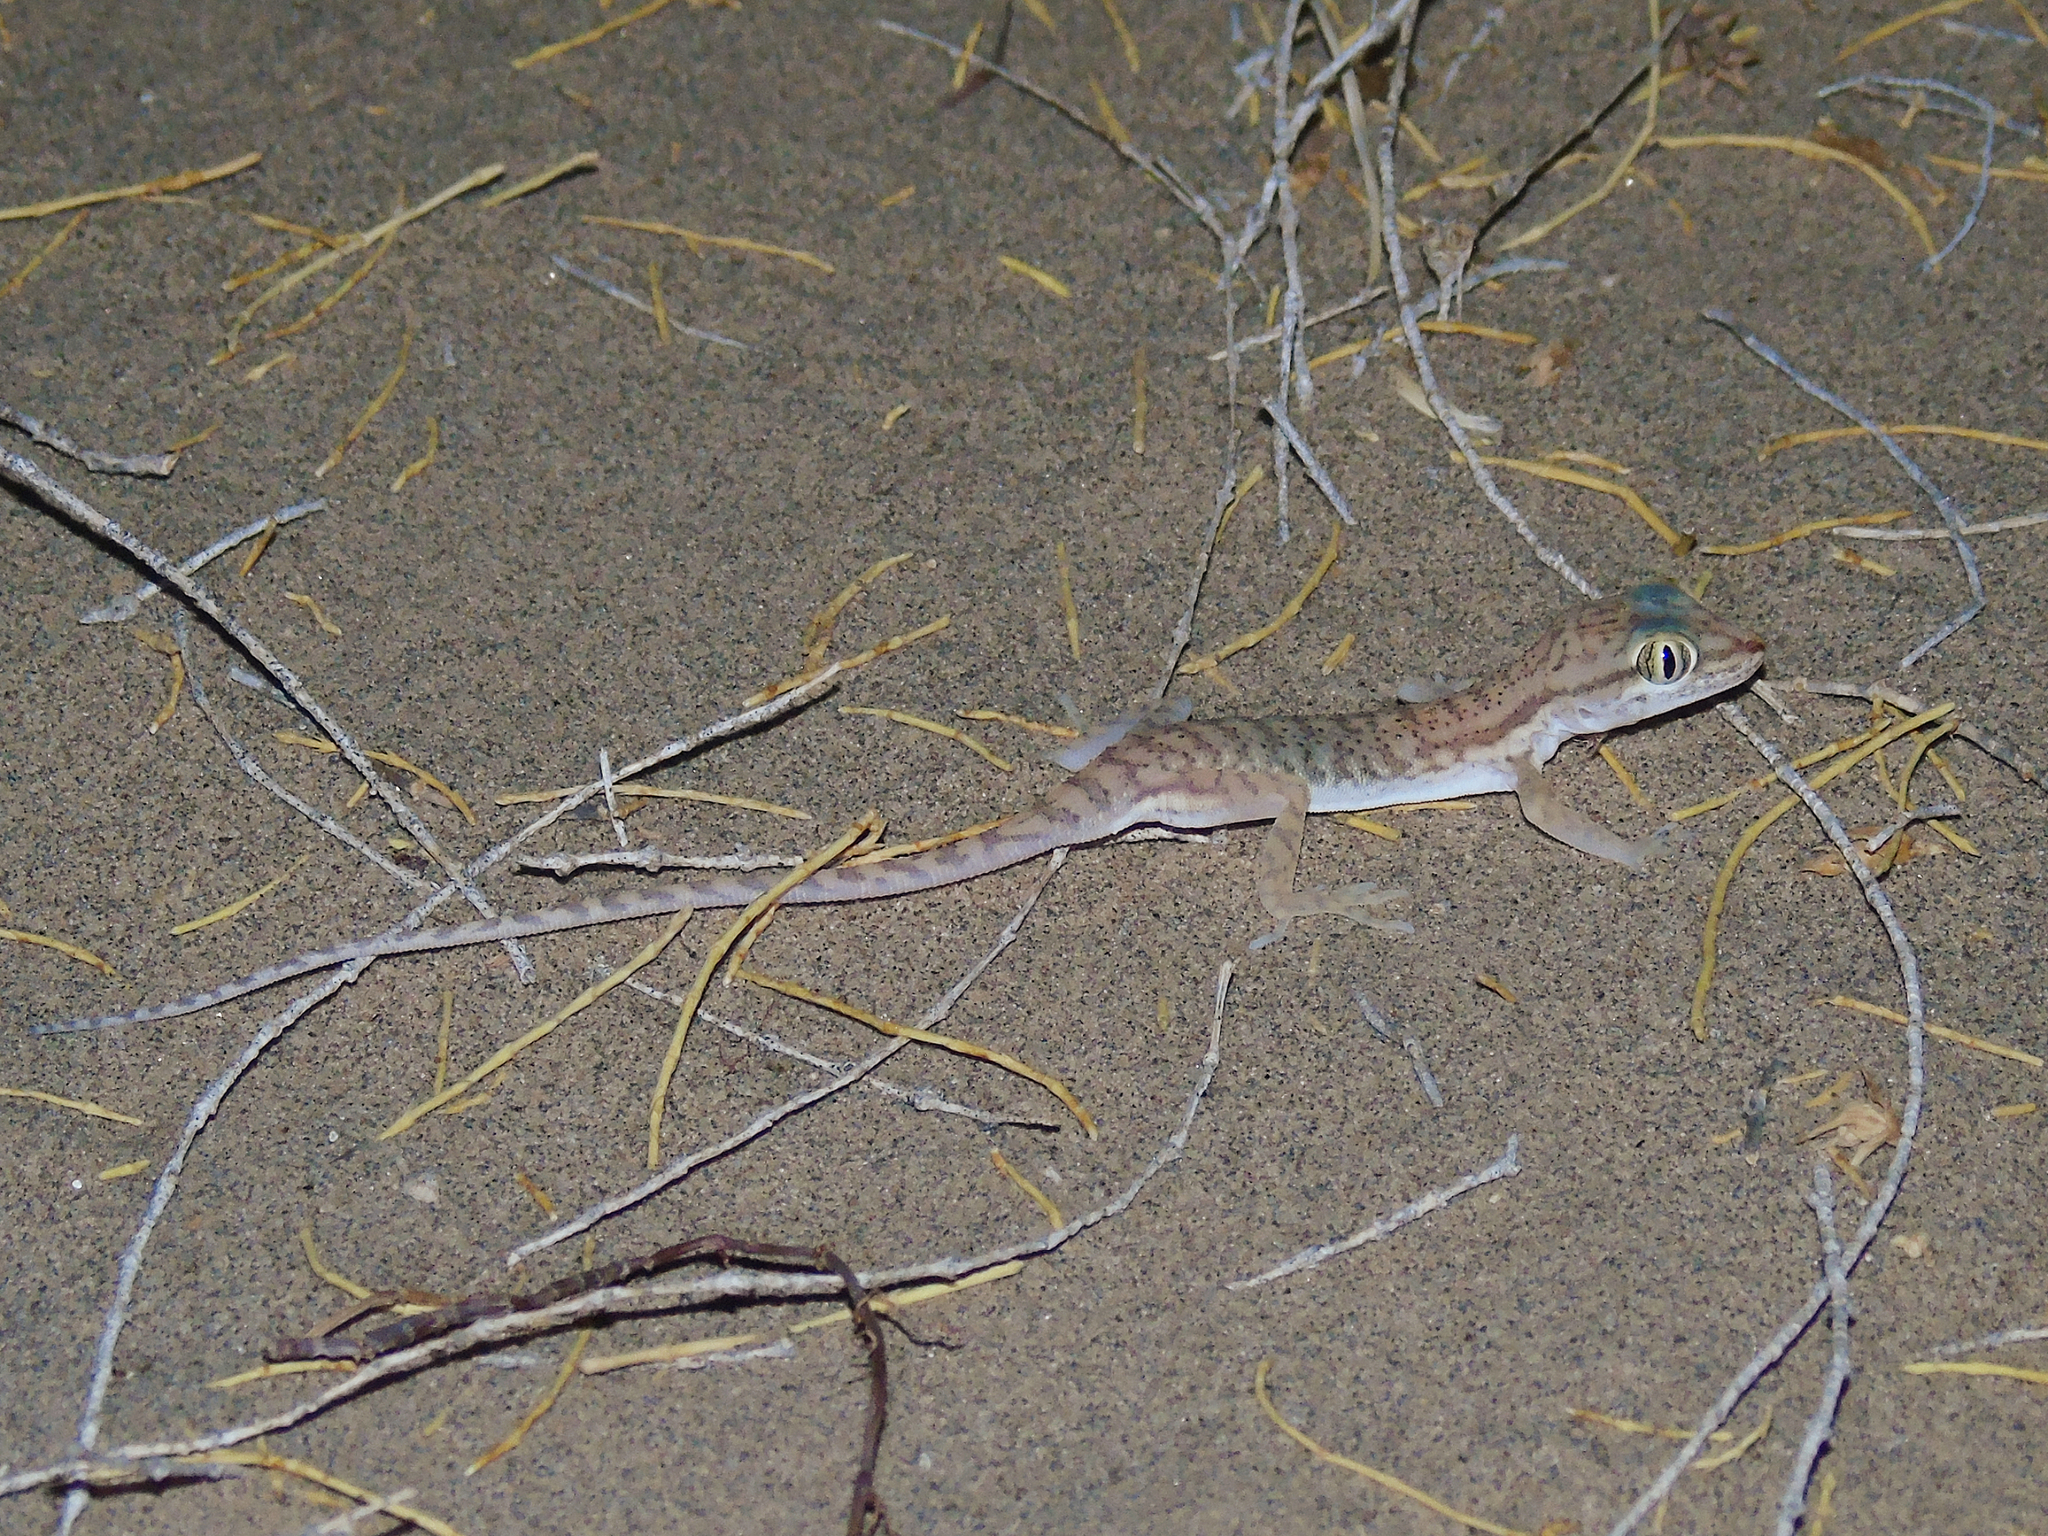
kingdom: Animalia
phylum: Chordata
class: Squamata
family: Gekkonidae
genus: Crossobamon
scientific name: Crossobamon eversmanni
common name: Comb-toed gecko
